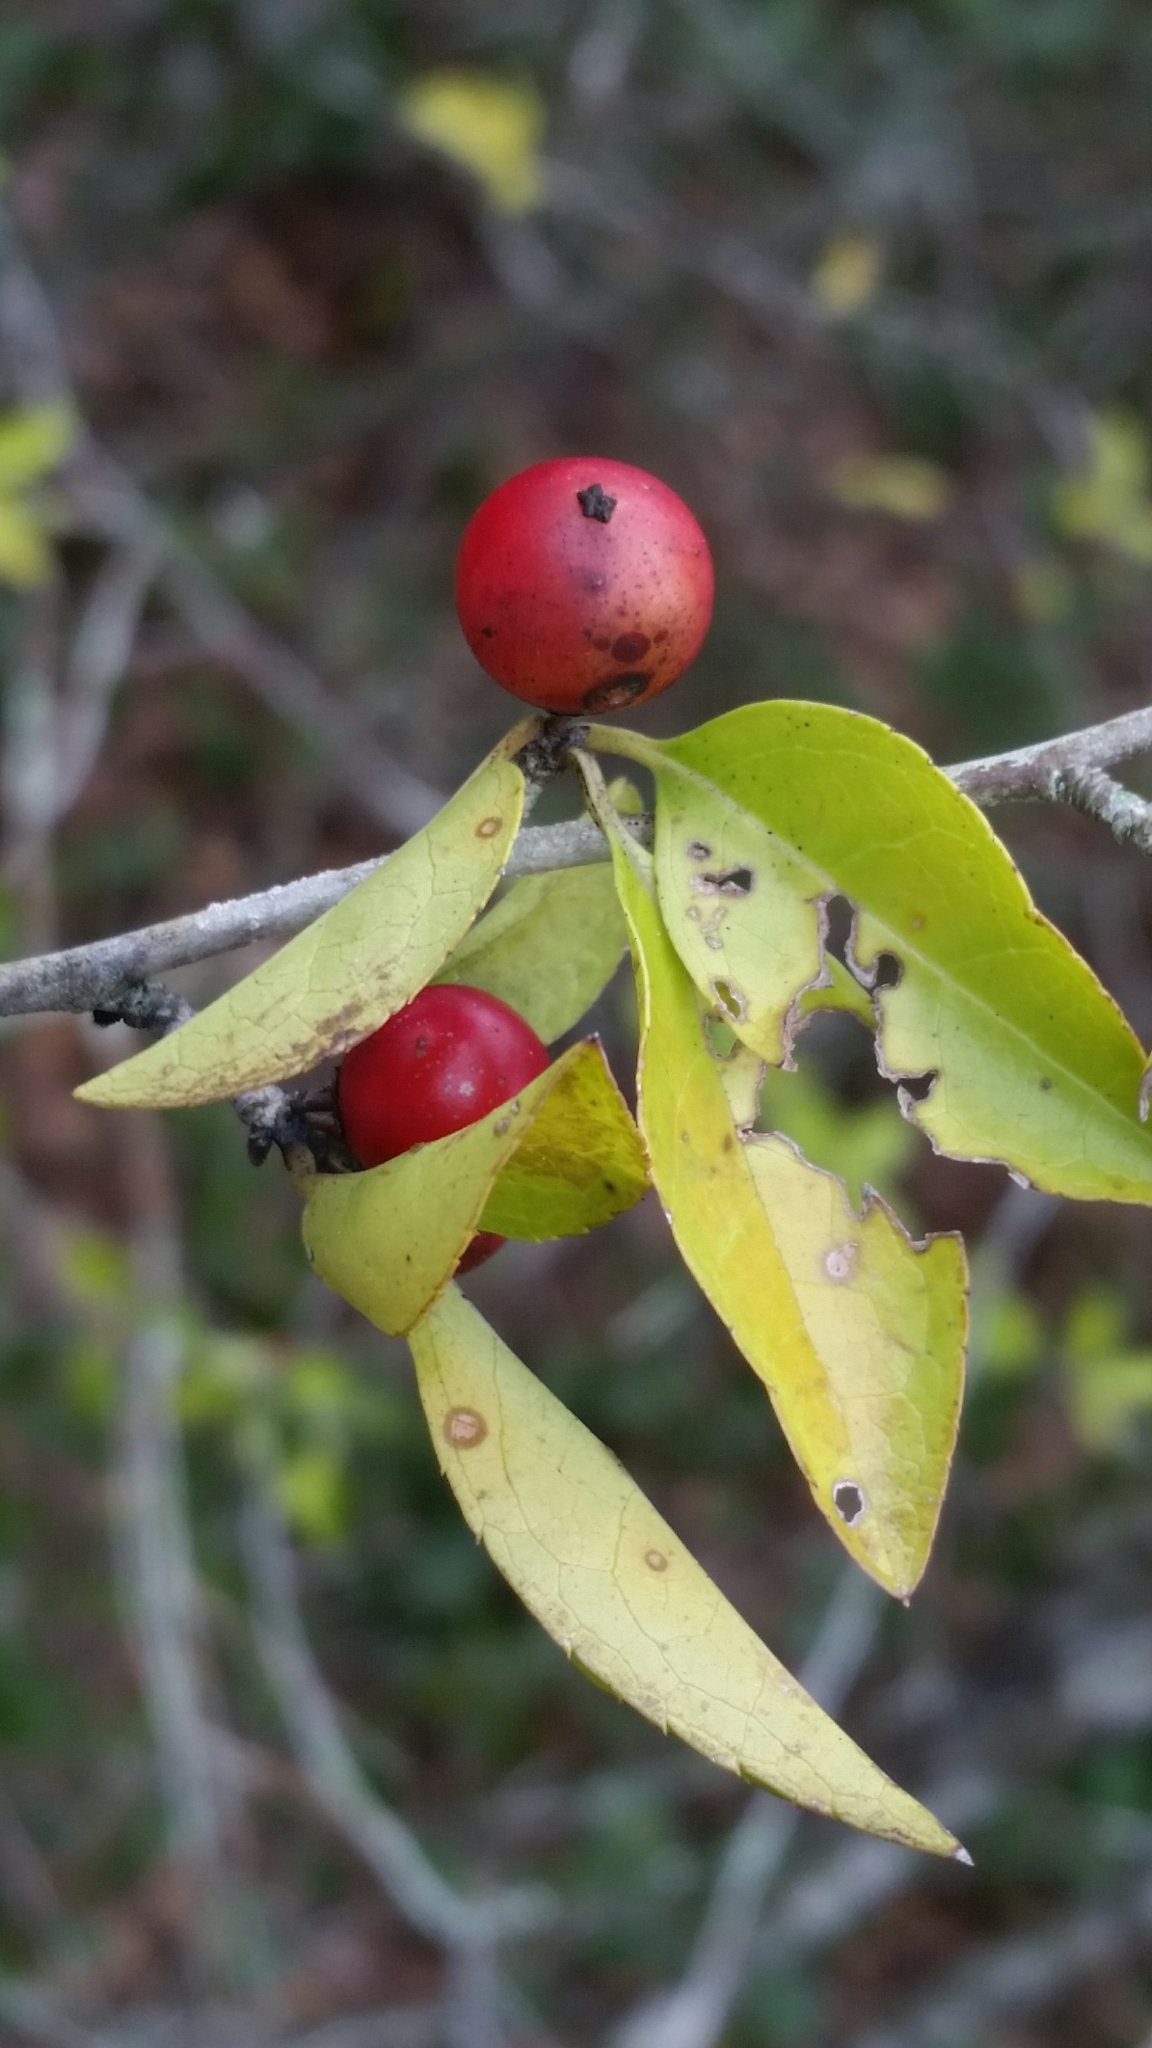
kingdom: Plantae
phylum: Tracheophyta
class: Magnoliopsida
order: Aquifoliales
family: Aquifoliaceae
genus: Ilex
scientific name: Ilex ambigua
